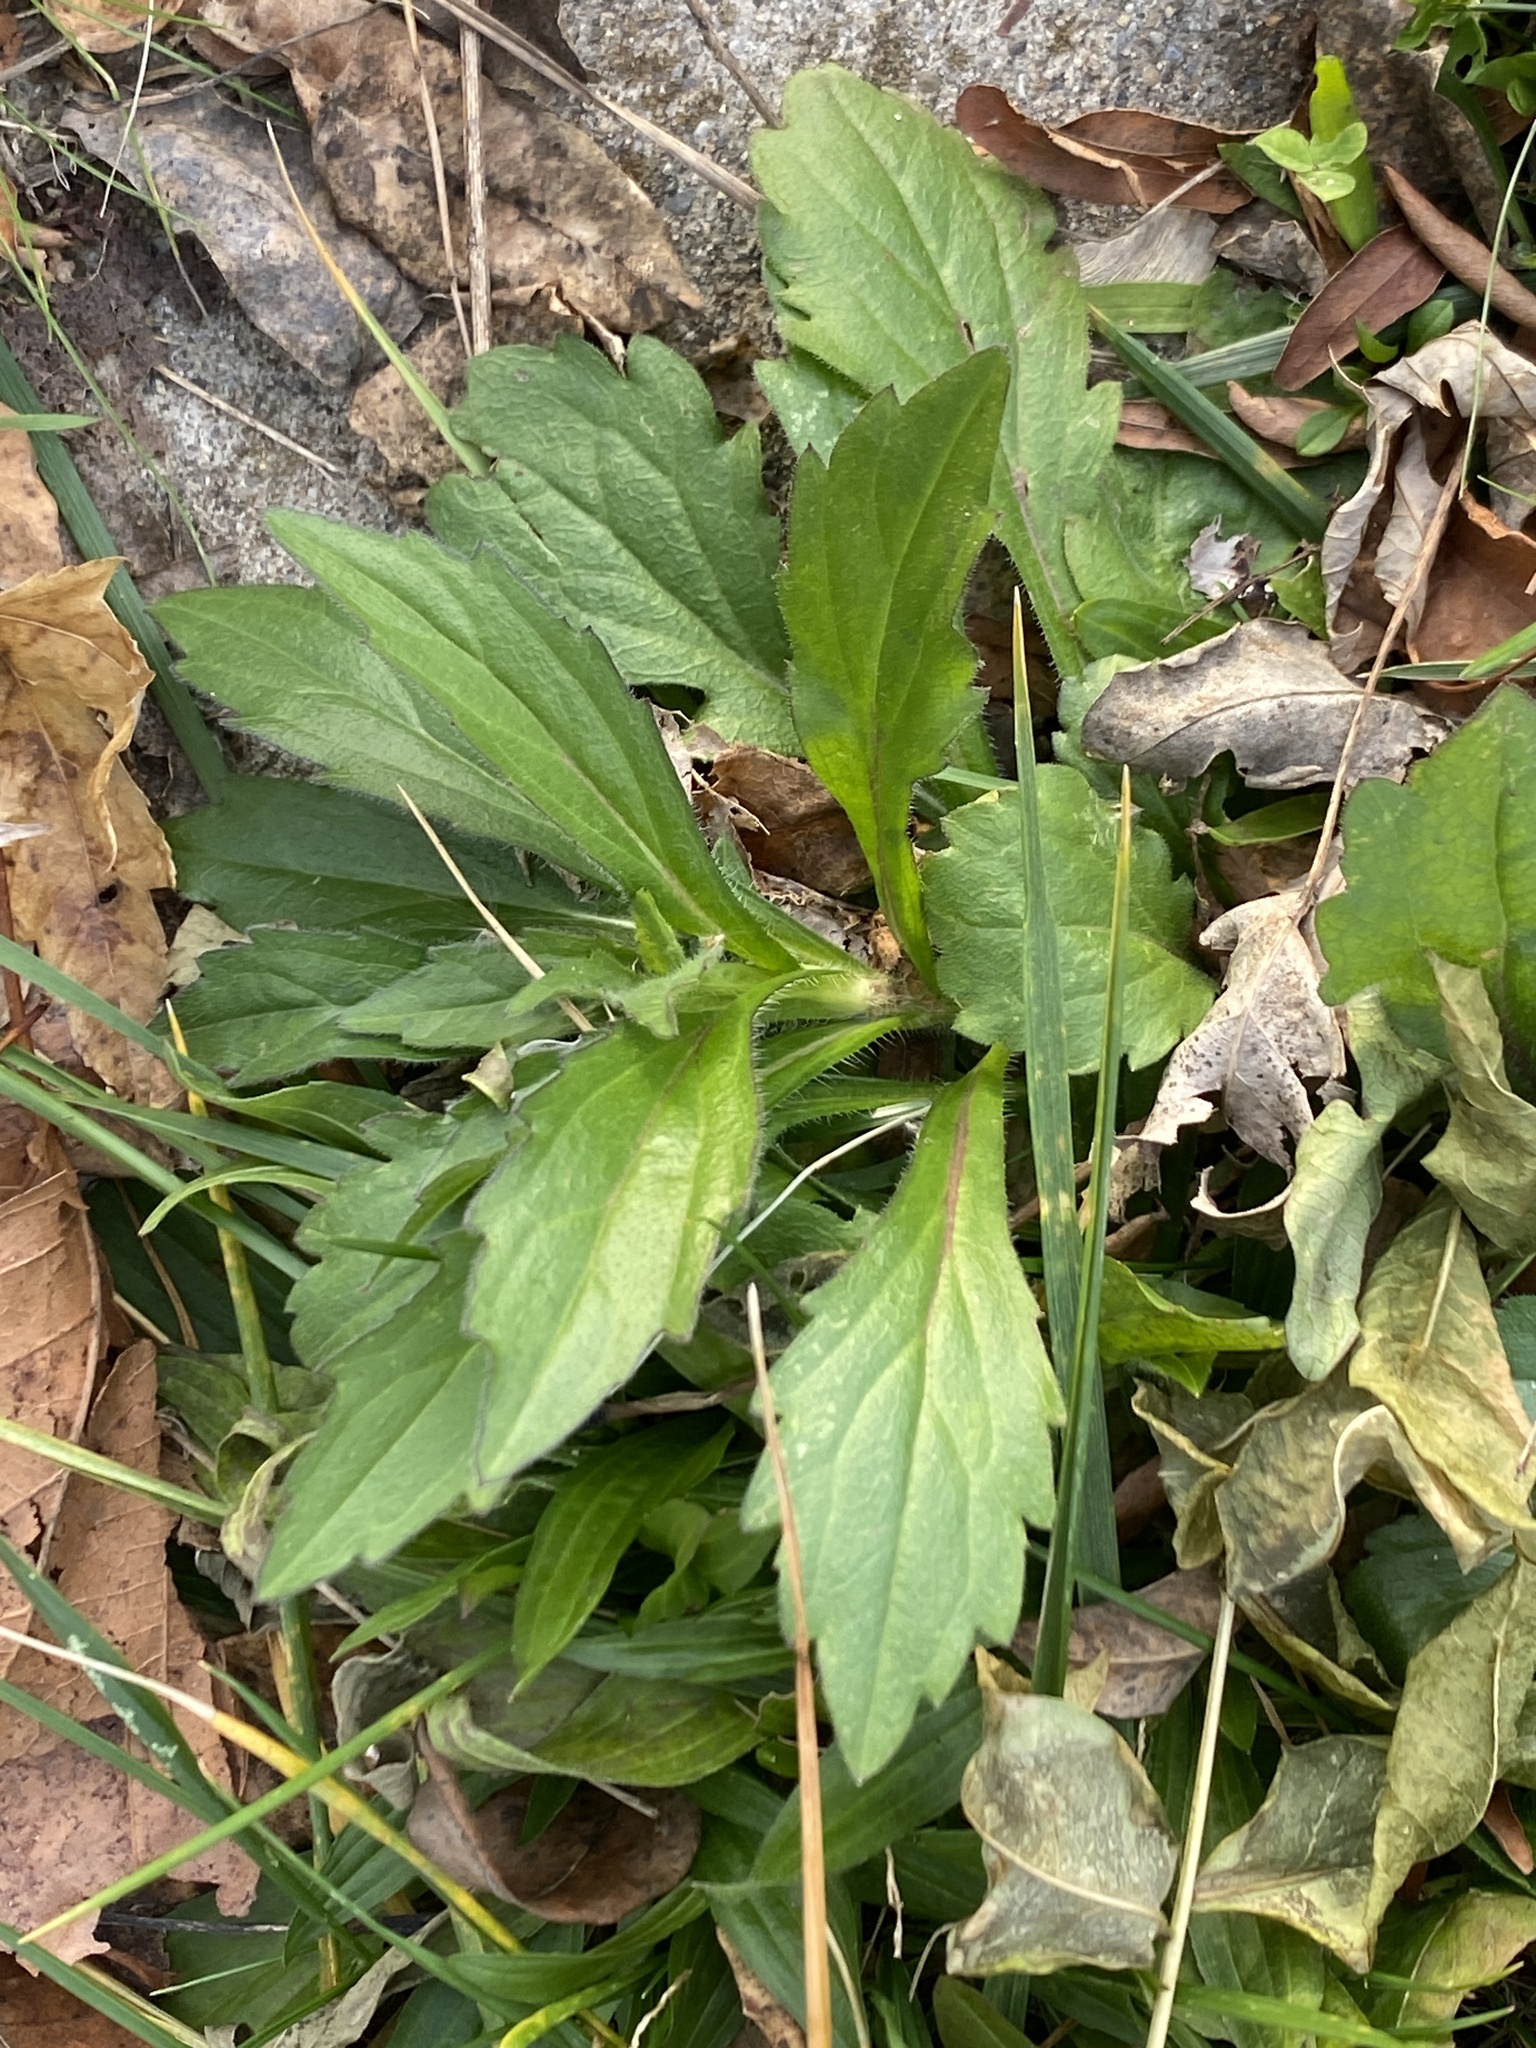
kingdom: Plantae
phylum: Tracheophyta
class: Magnoliopsida
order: Asterales
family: Asteraceae
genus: Erigeron
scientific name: Erigeron annuus
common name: Tall fleabane
